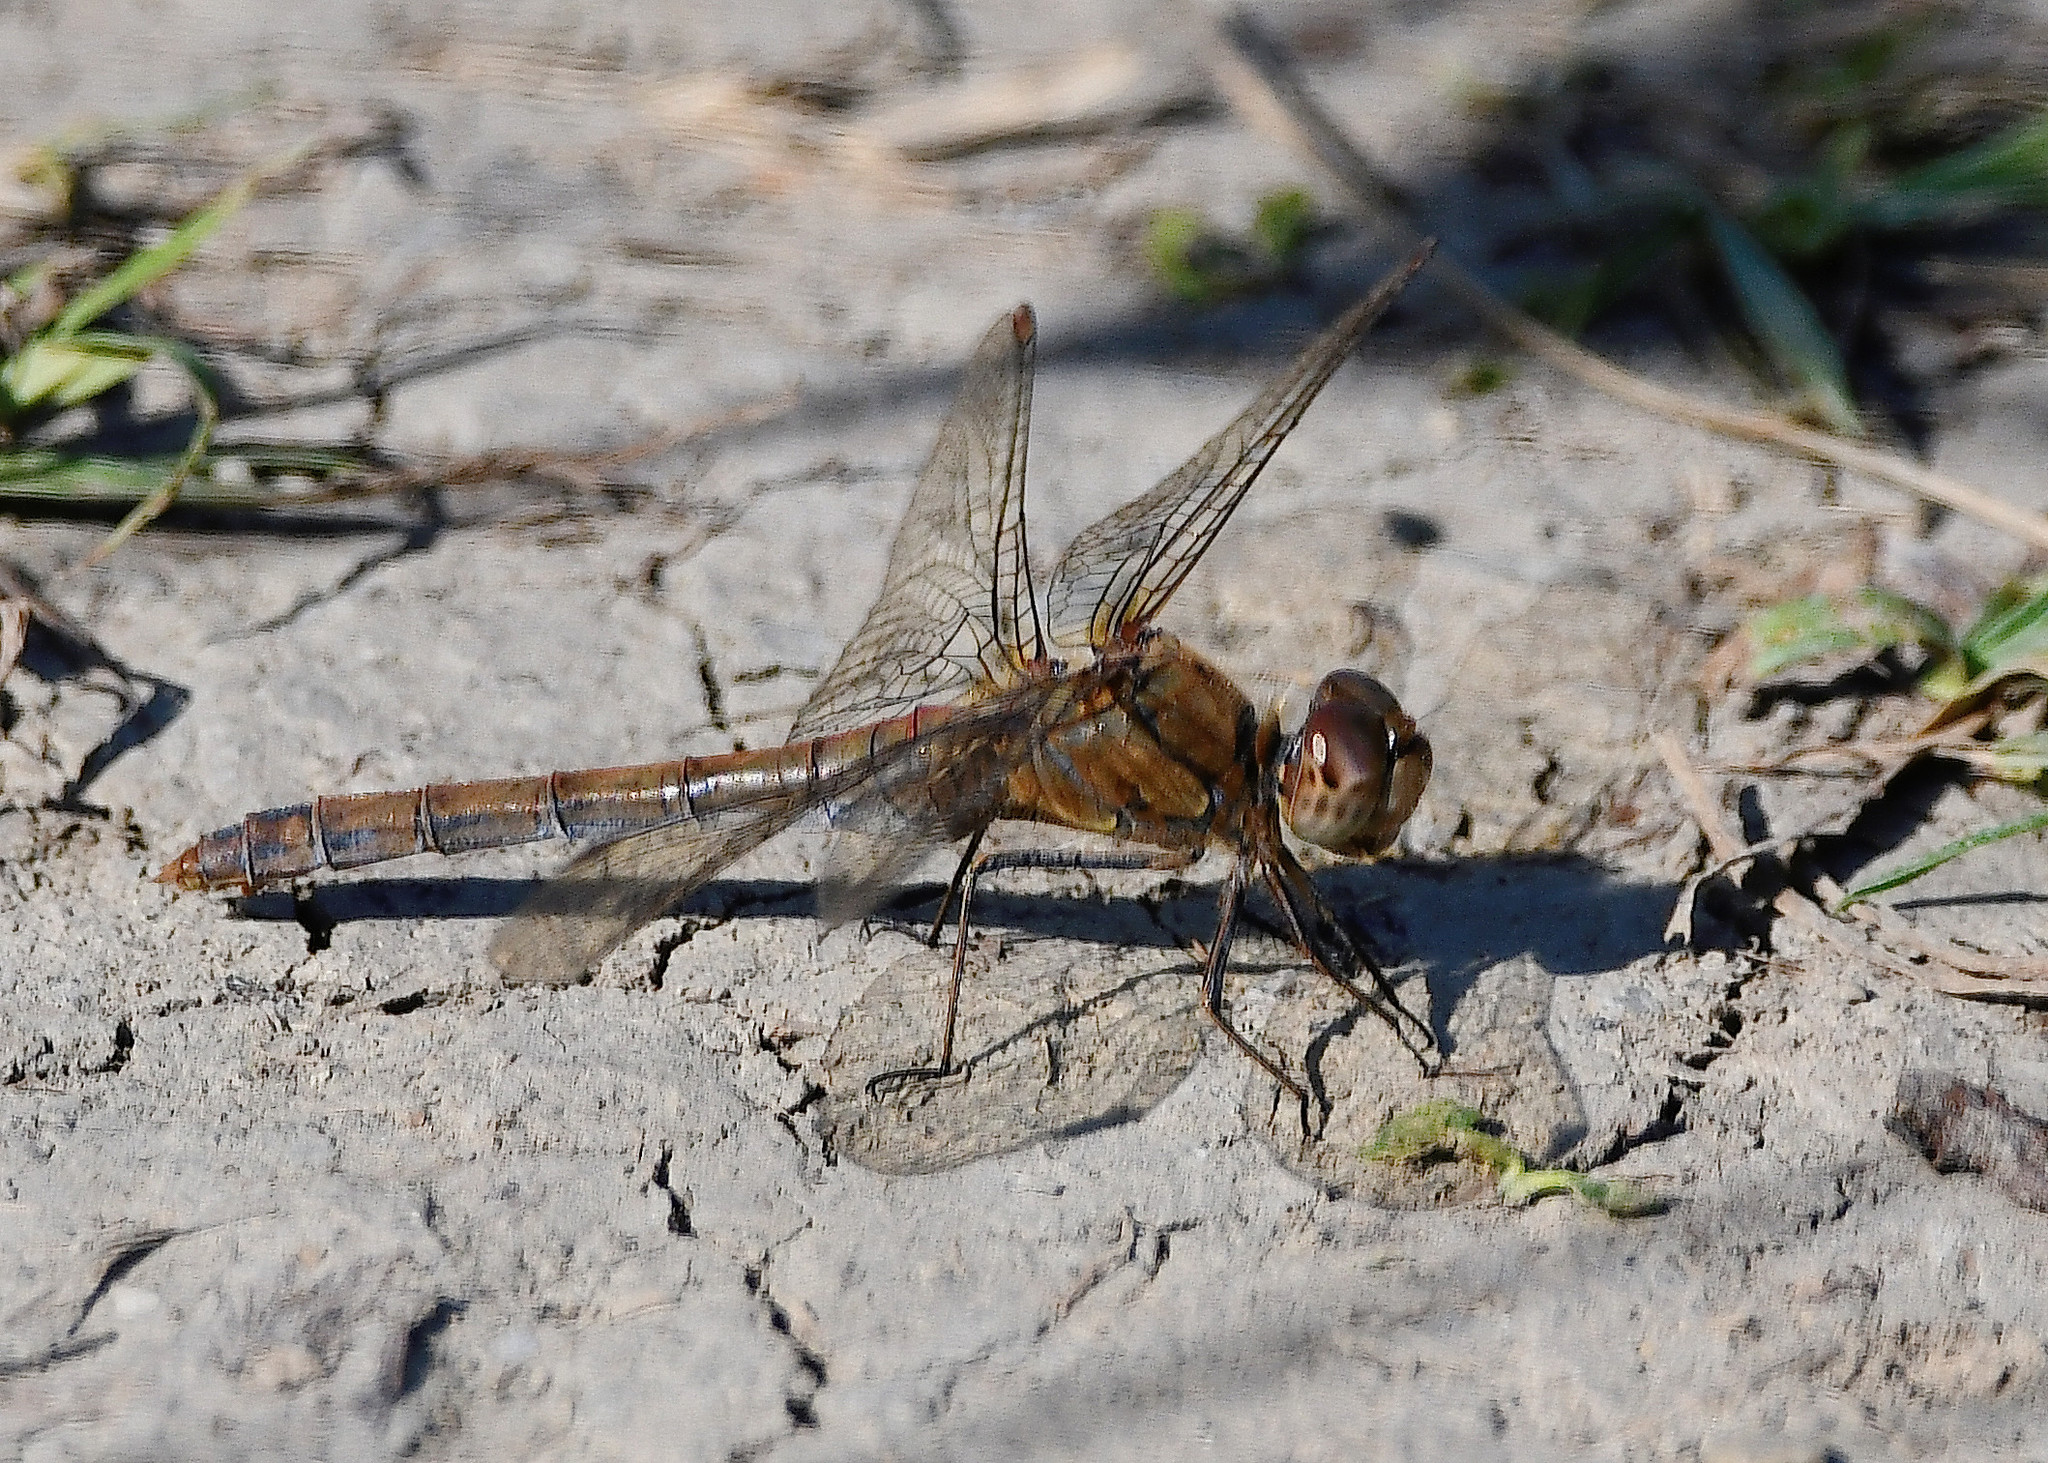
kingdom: Animalia
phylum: Arthropoda
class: Insecta
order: Odonata
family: Libellulidae
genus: Sympetrum
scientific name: Sympetrum striolatum
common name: Common darter
